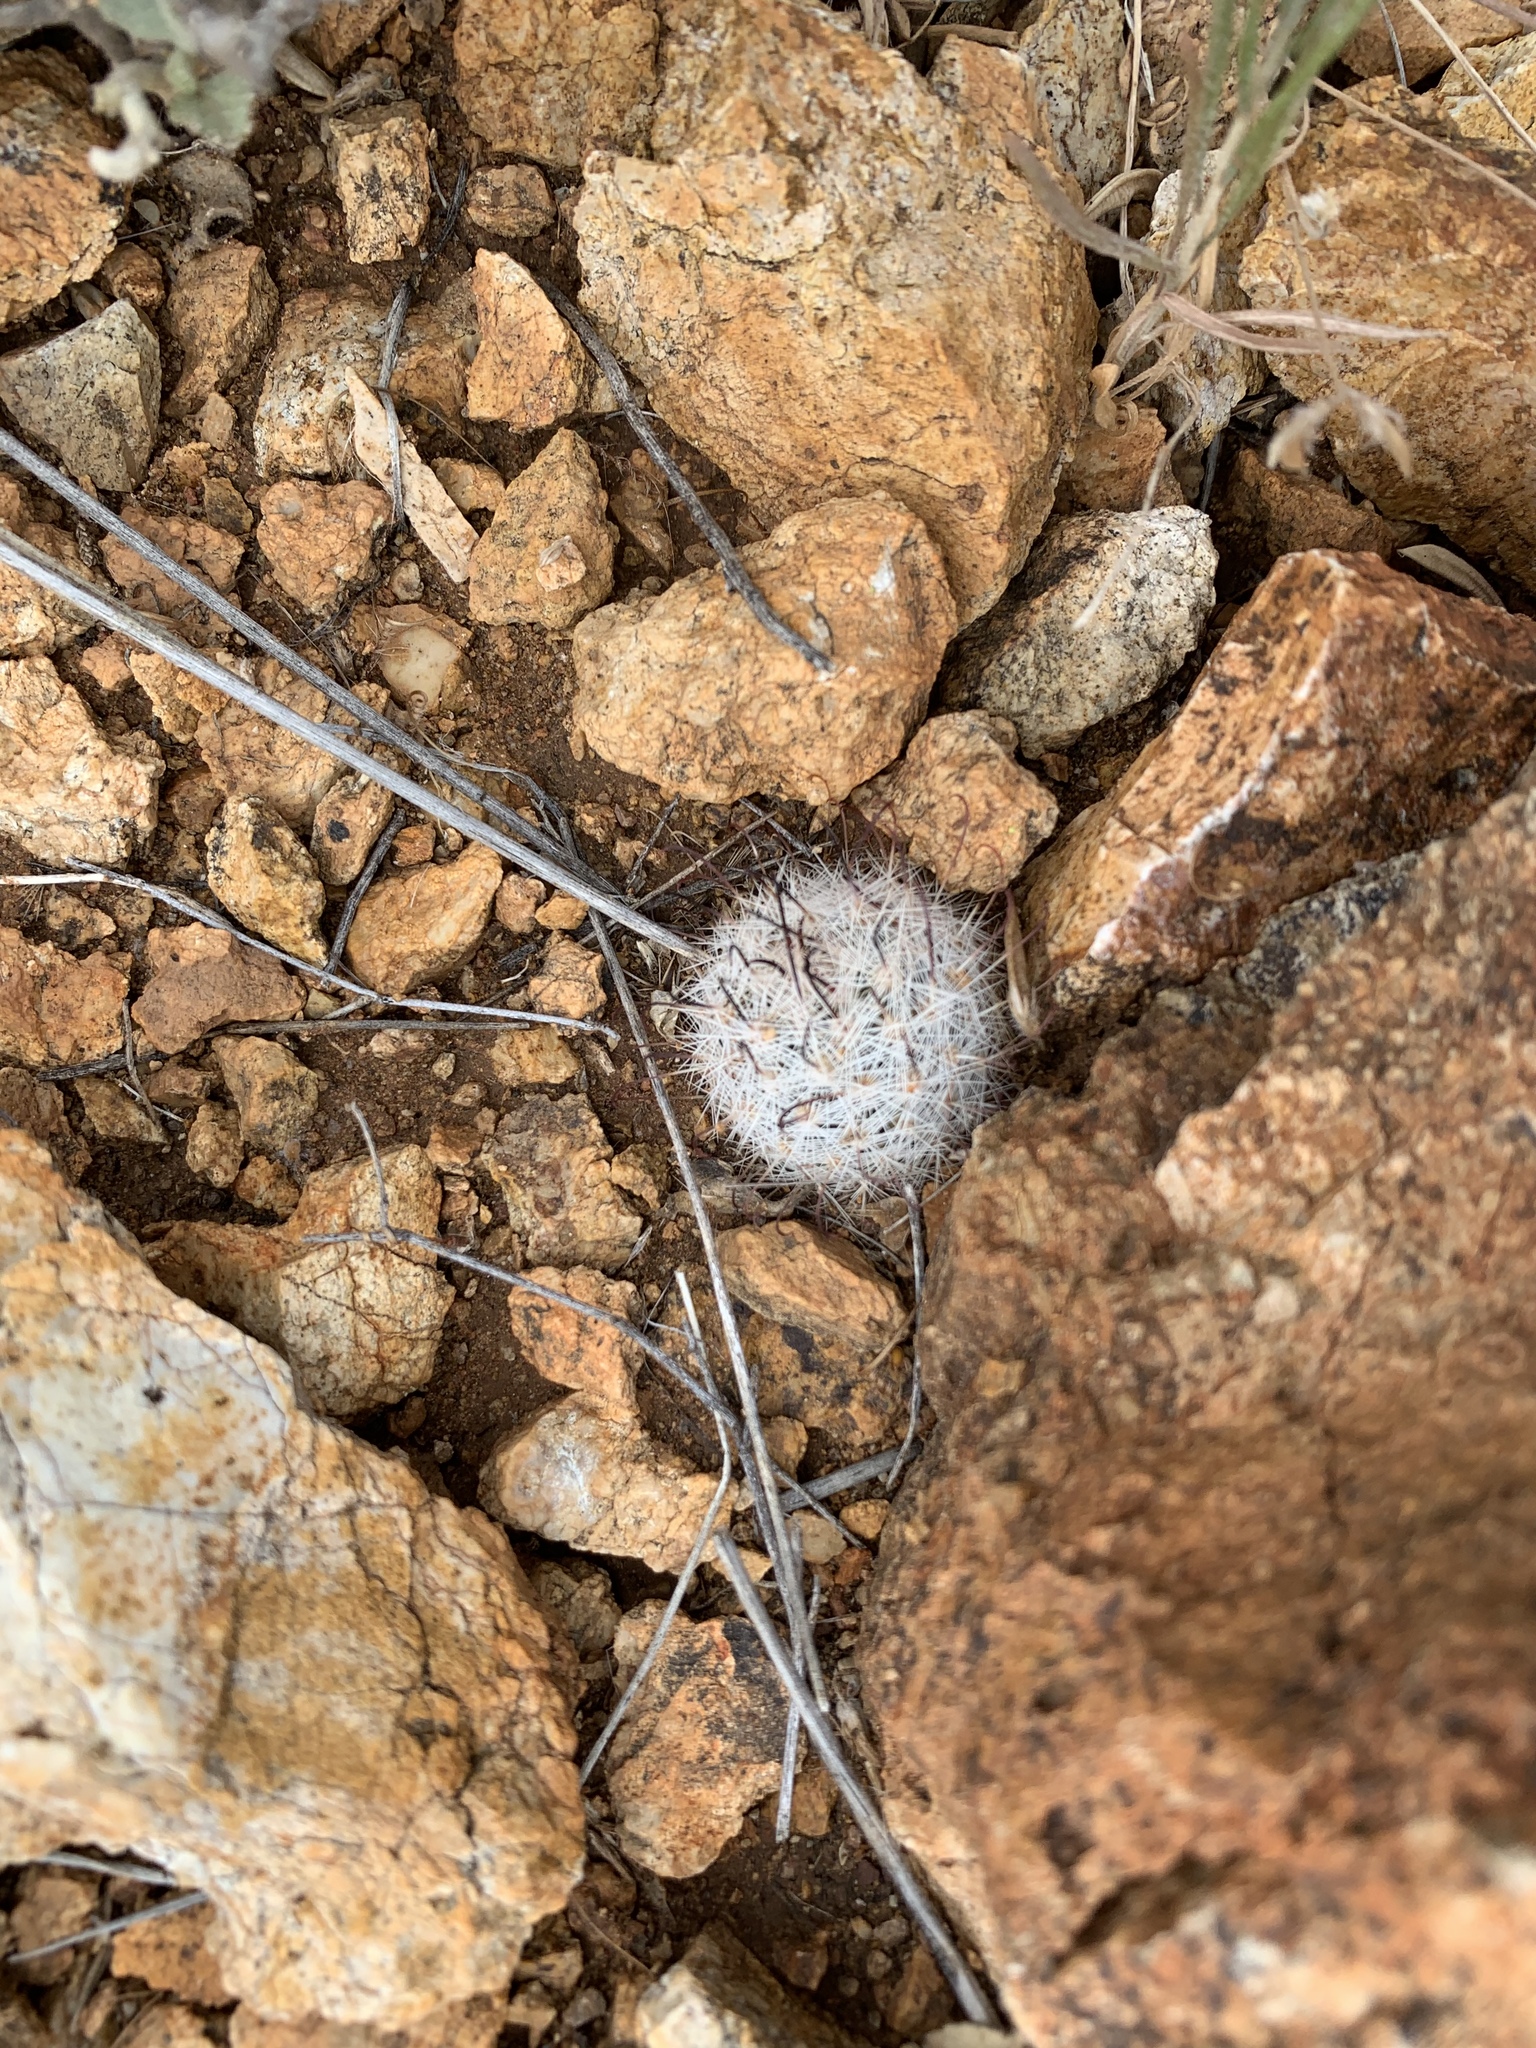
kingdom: Plantae
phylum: Tracheophyta
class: Magnoliopsida
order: Caryophyllales
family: Cactaceae
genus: Cochemiea
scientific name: Cochemiea grahamii
